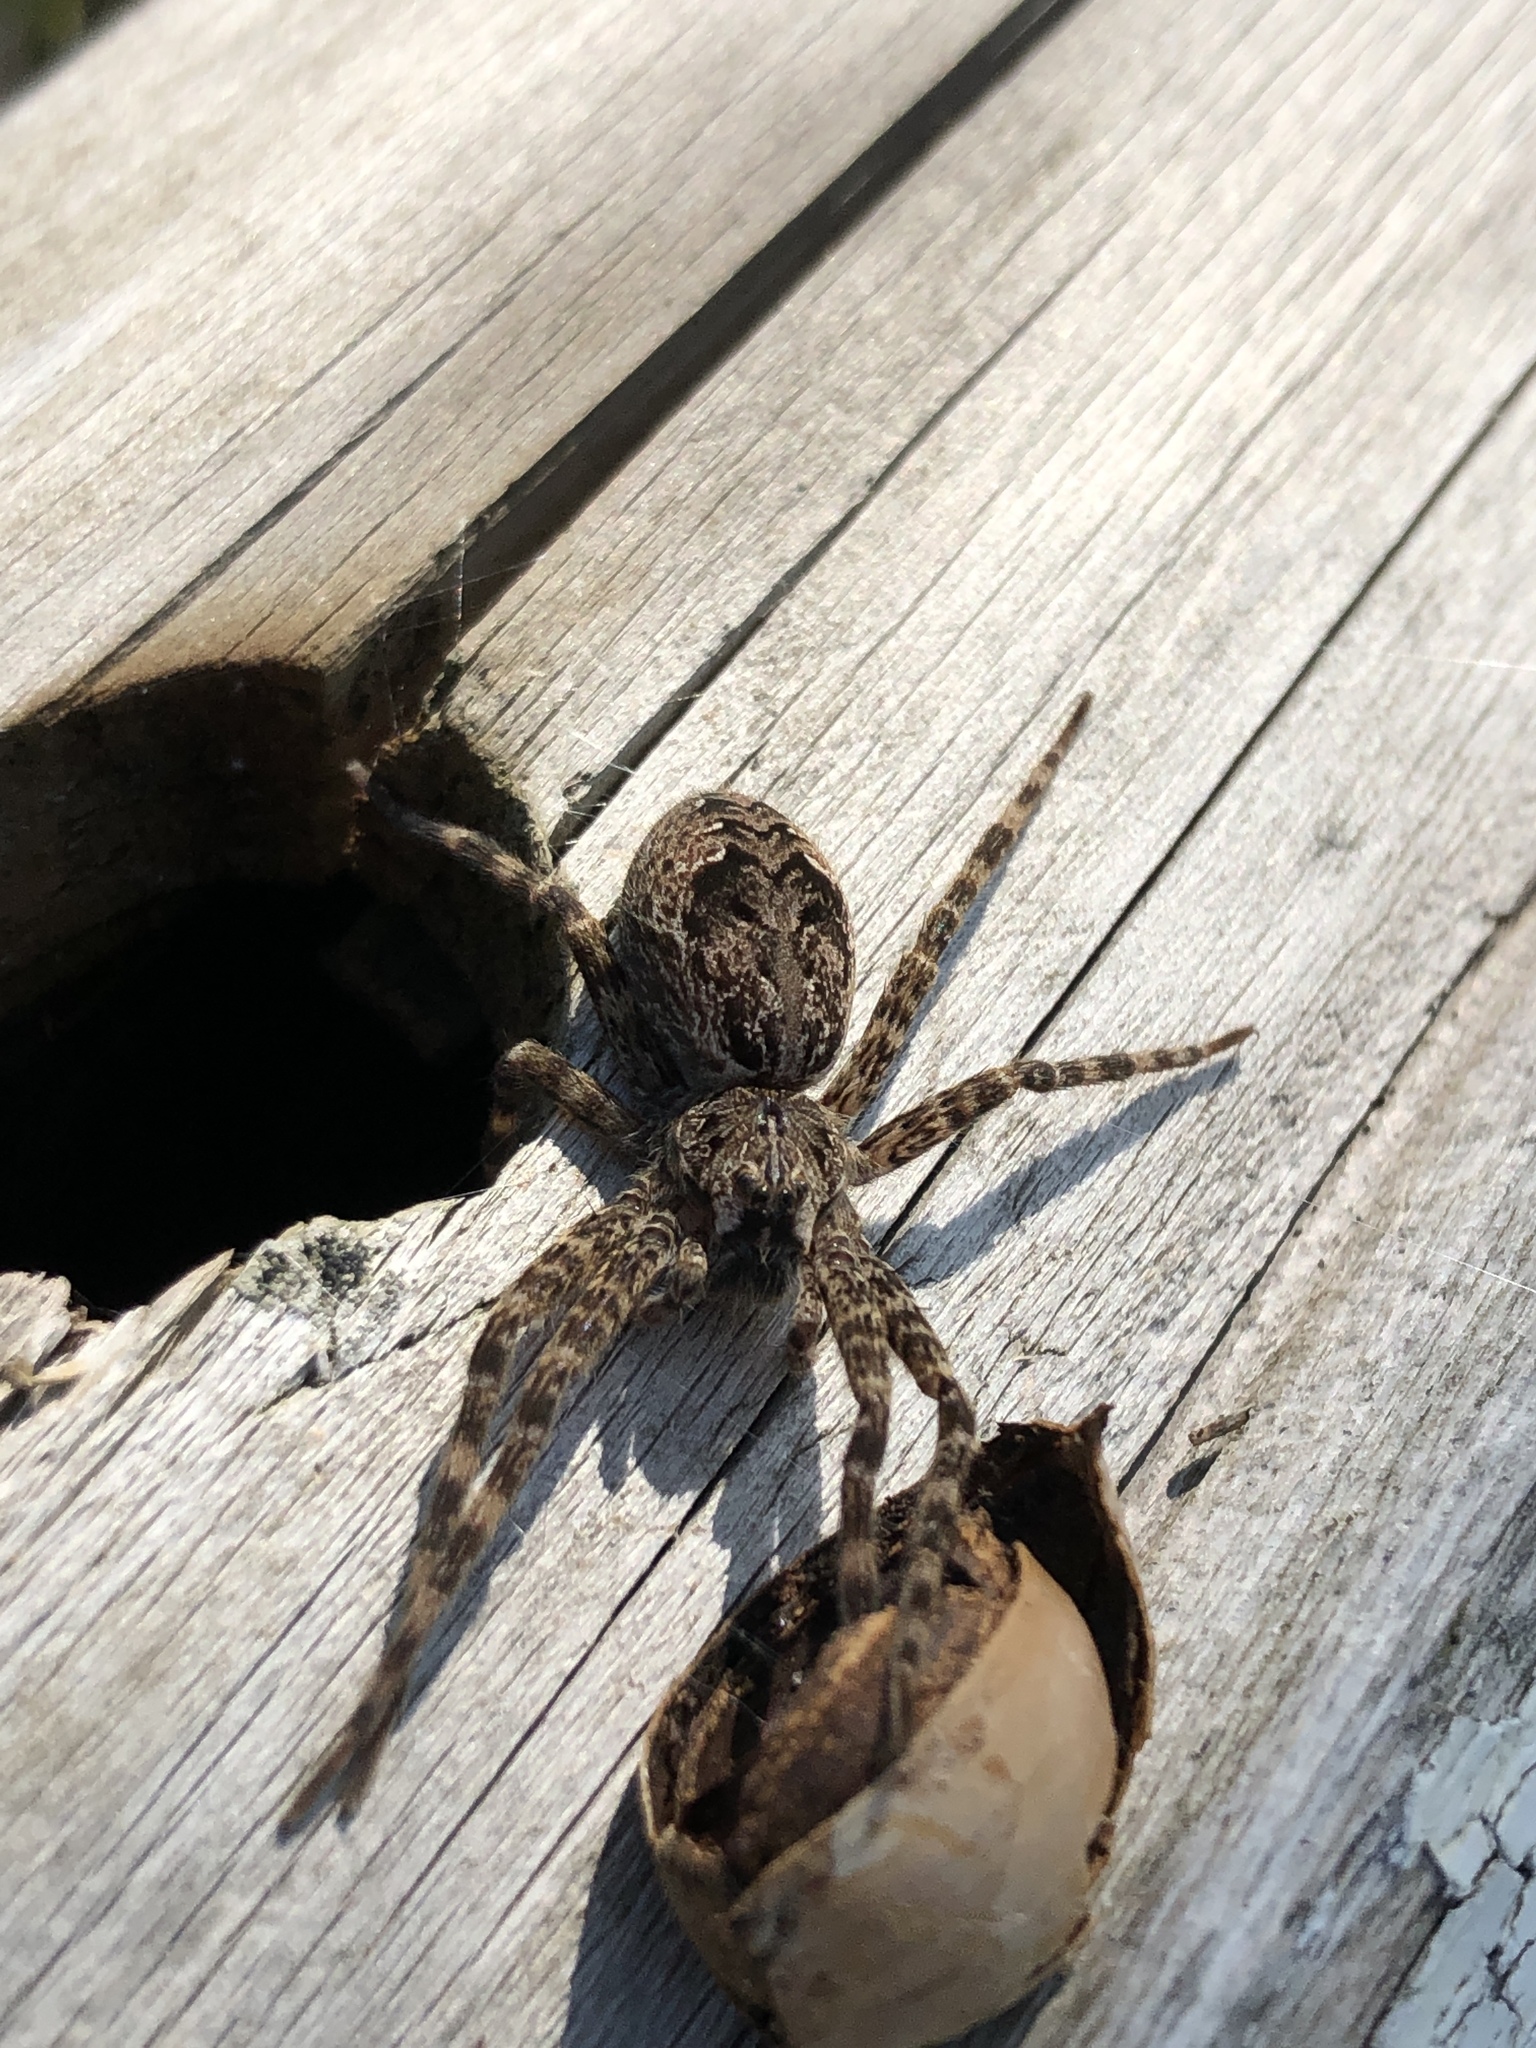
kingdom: Animalia
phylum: Arthropoda
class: Arachnida
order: Araneae
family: Pisauridae
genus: Dolomedes
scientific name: Dolomedes tenebrosus
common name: Dark fishing spider
